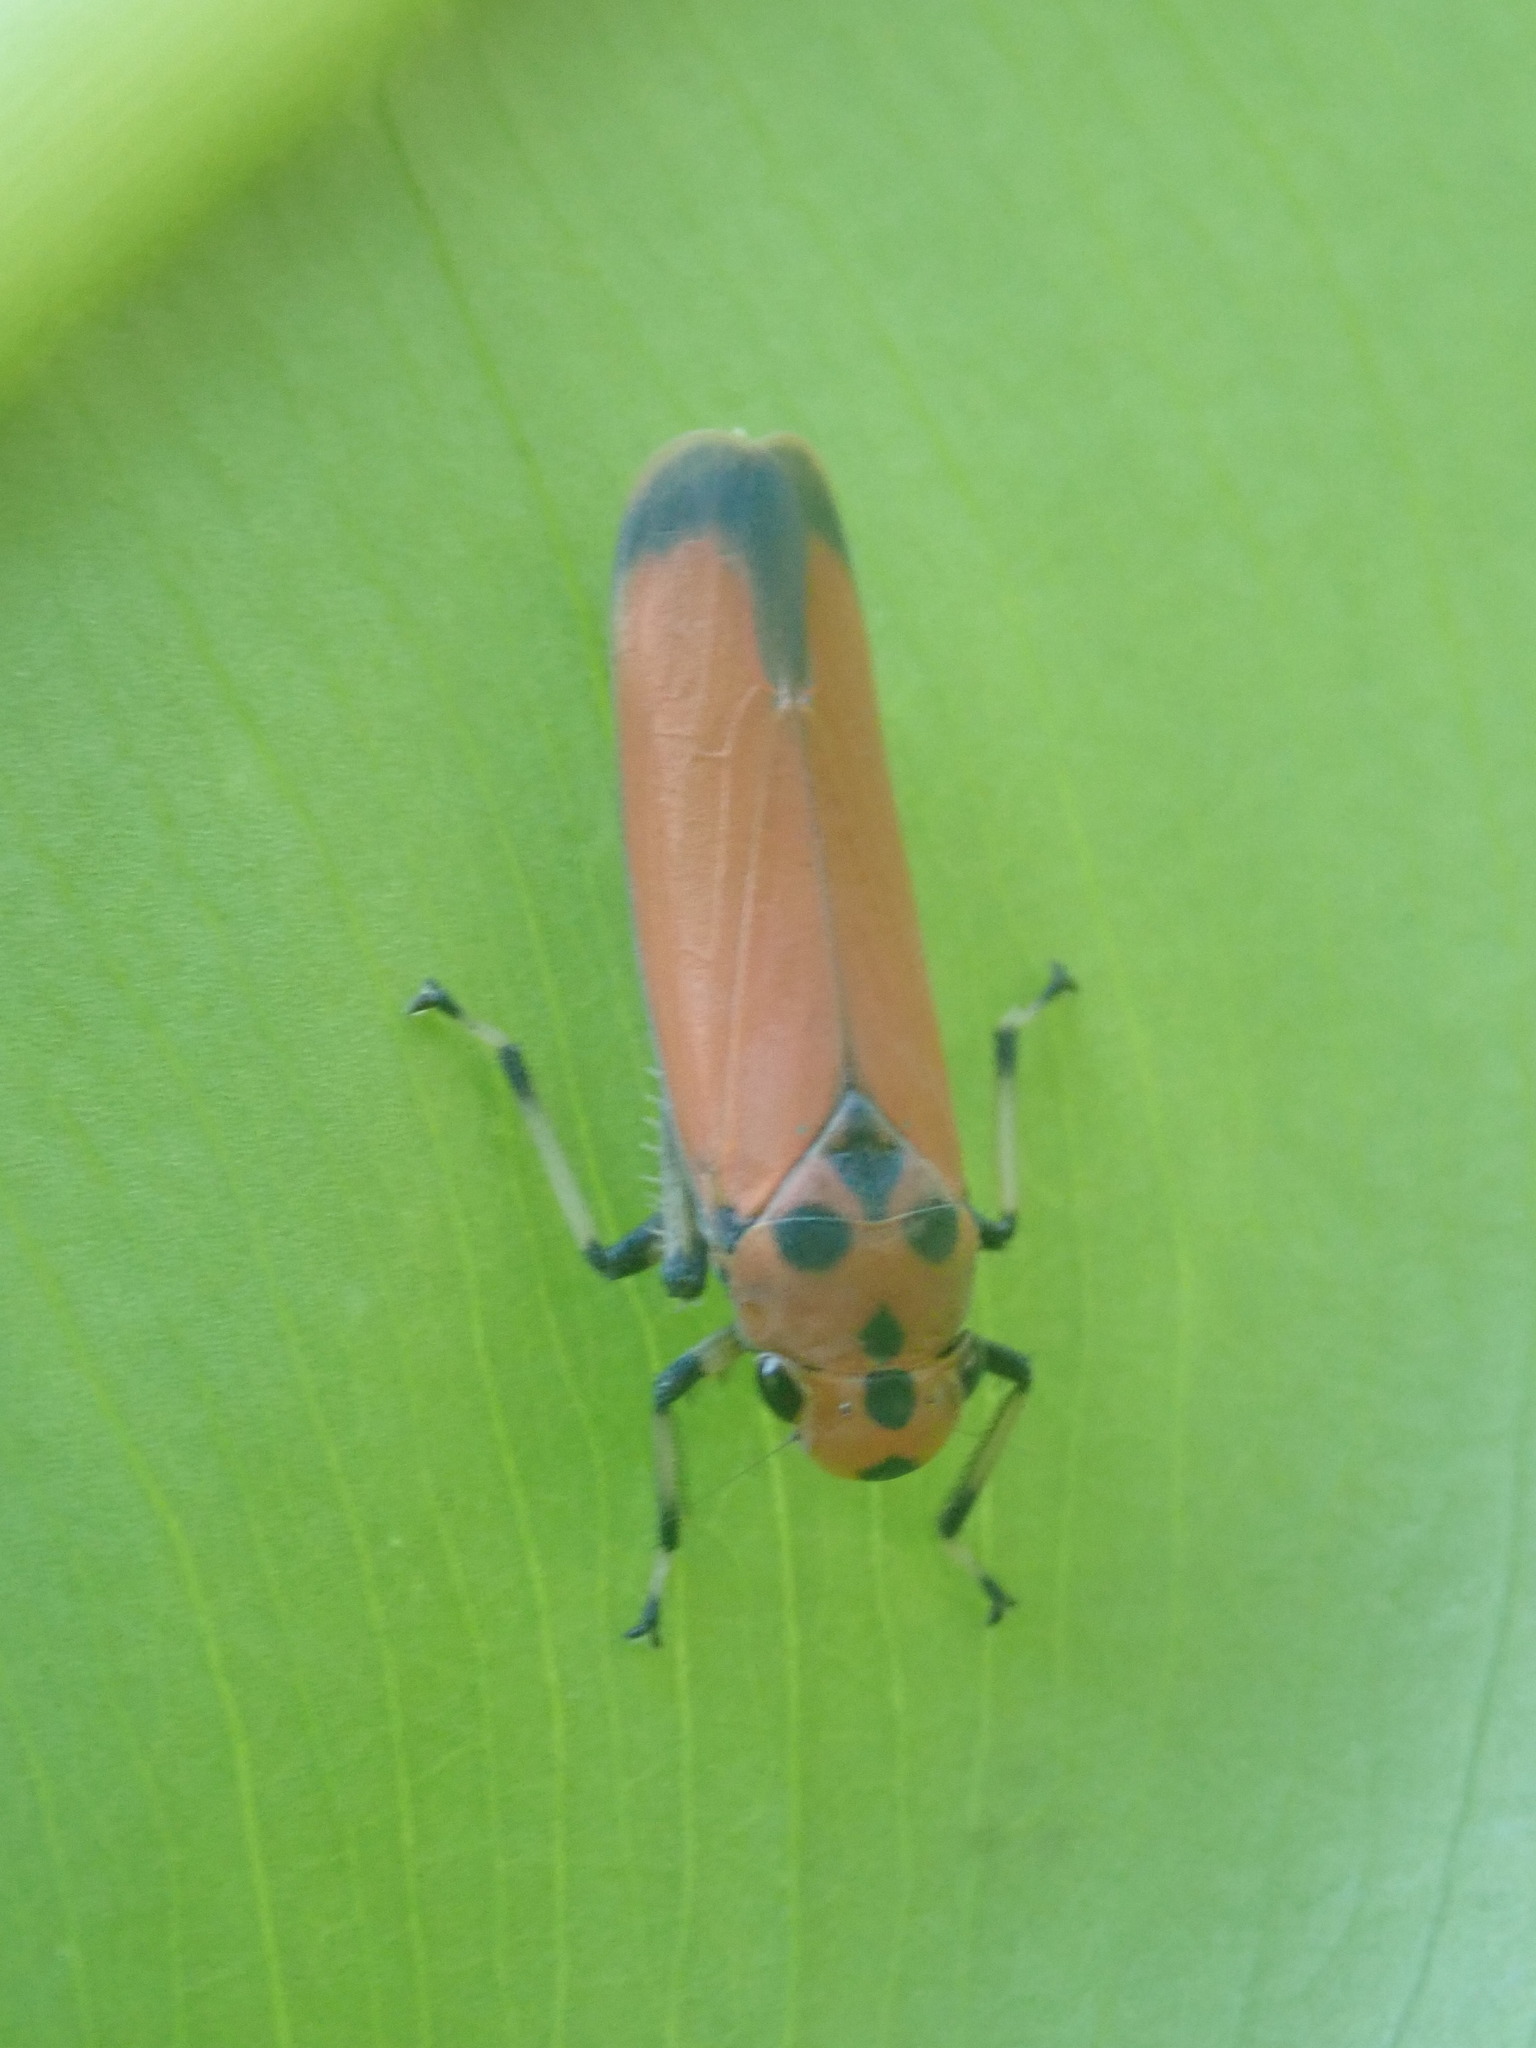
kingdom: Animalia
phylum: Arthropoda
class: Insecta
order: Hemiptera
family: Cicadellidae
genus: Bothrogonia
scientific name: Bothrogonia addita
